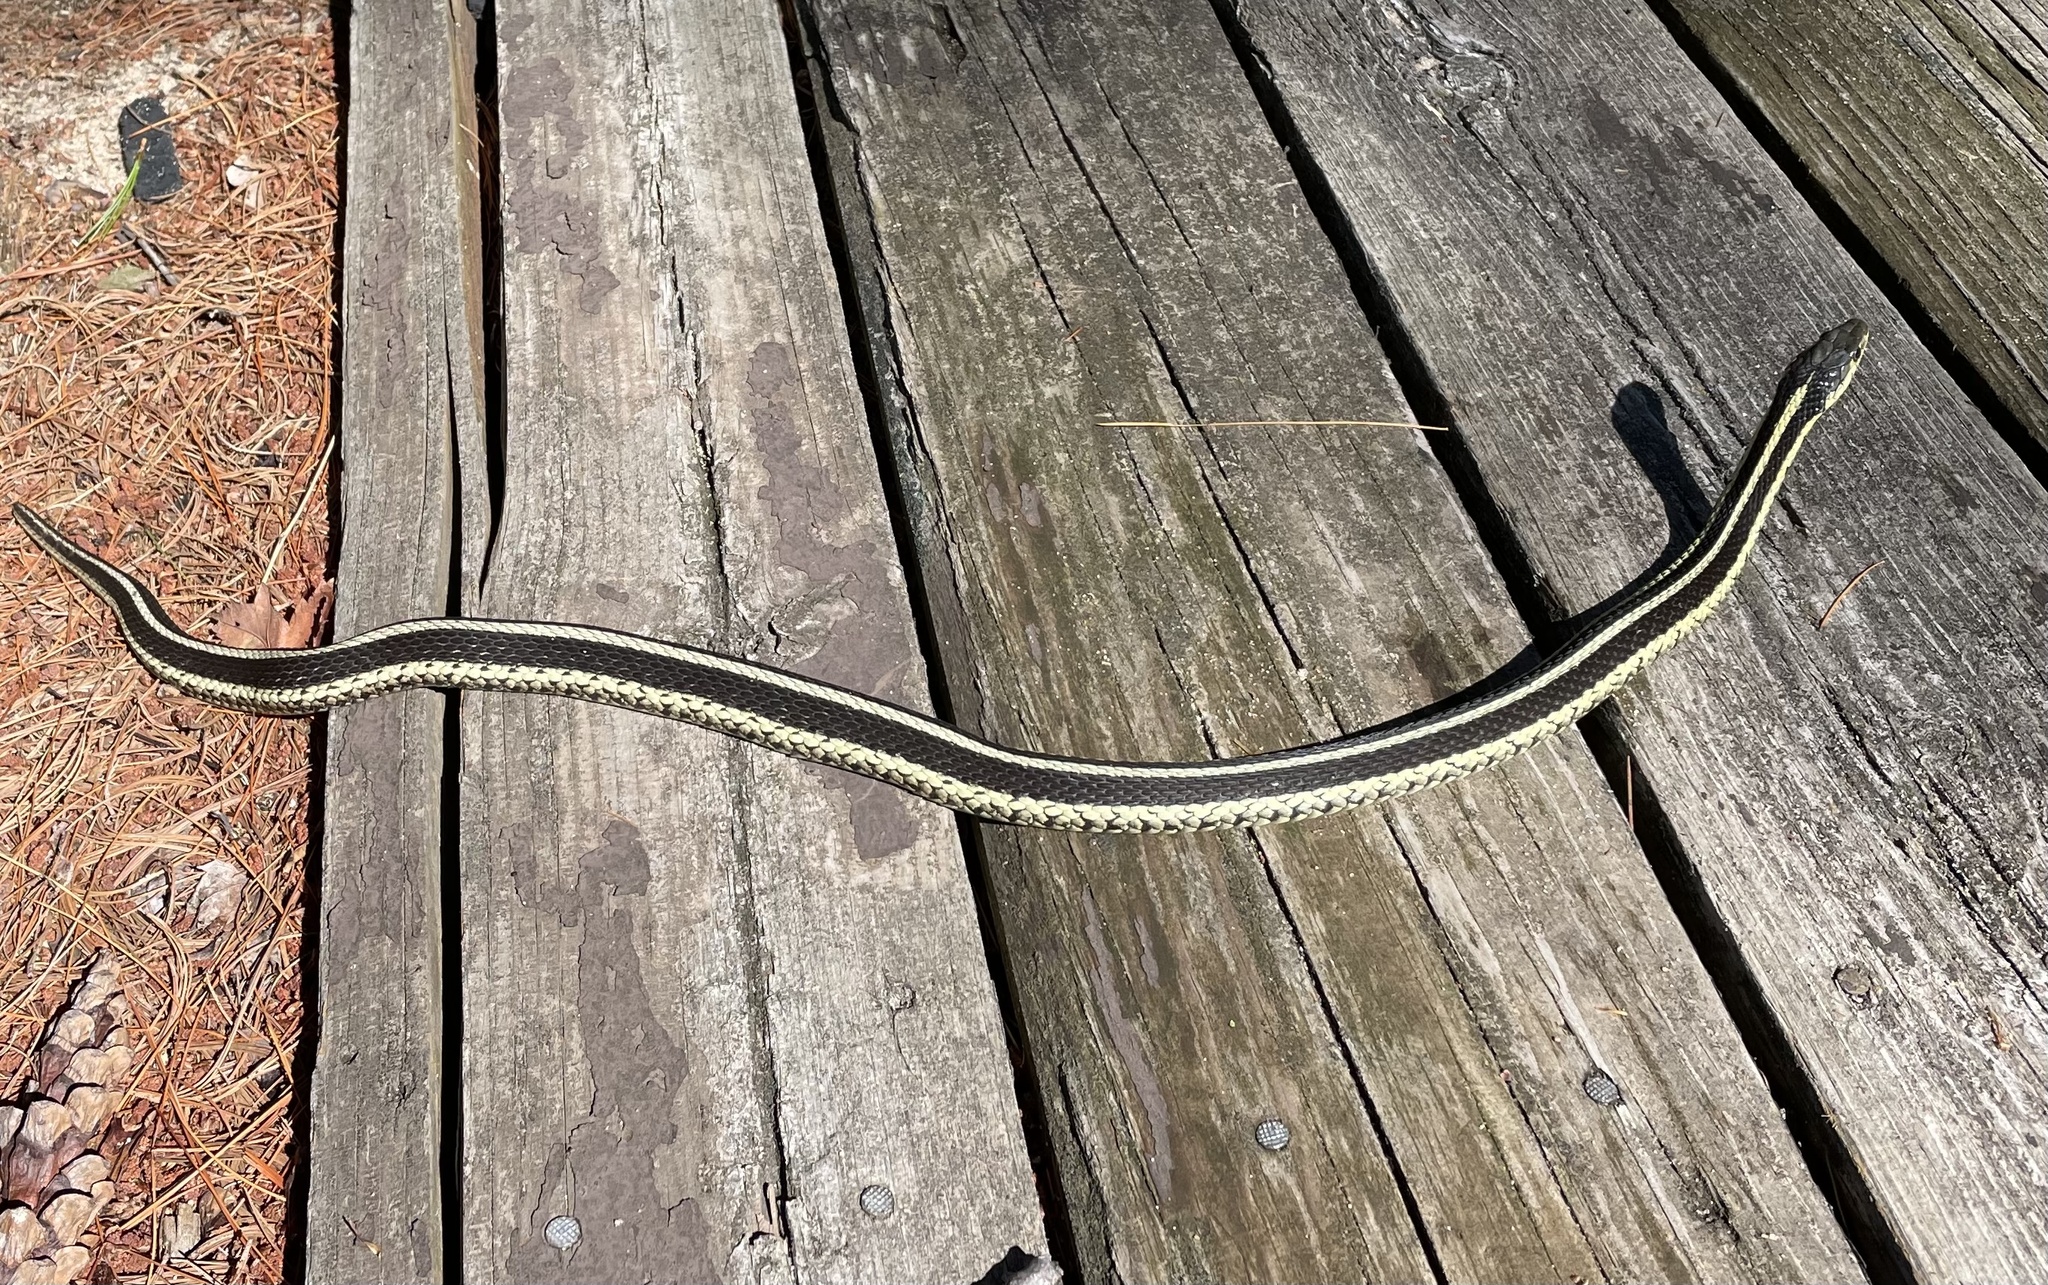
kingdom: Animalia
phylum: Chordata
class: Squamata
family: Colubridae
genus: Thamnophis
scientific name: Thamnophis sirtalis
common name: Common garter snake
